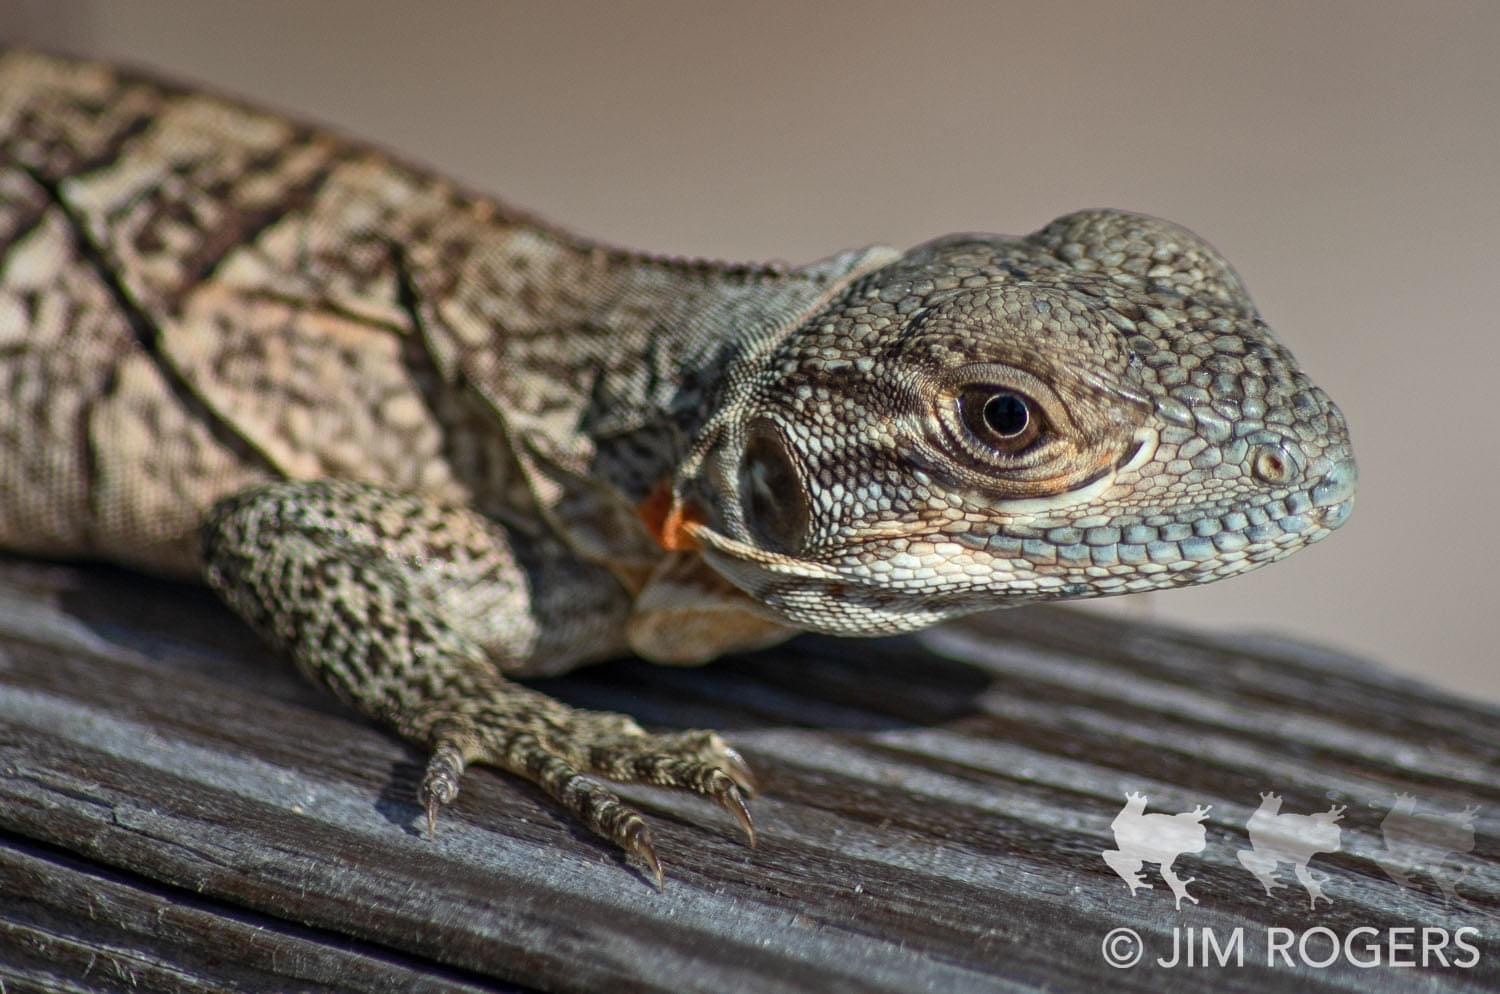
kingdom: Animalia
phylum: Chordata
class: Squamata
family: Iguanidae
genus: Ctenosaura
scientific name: Ctenosaura similis
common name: Black spiny-tailed iguana
